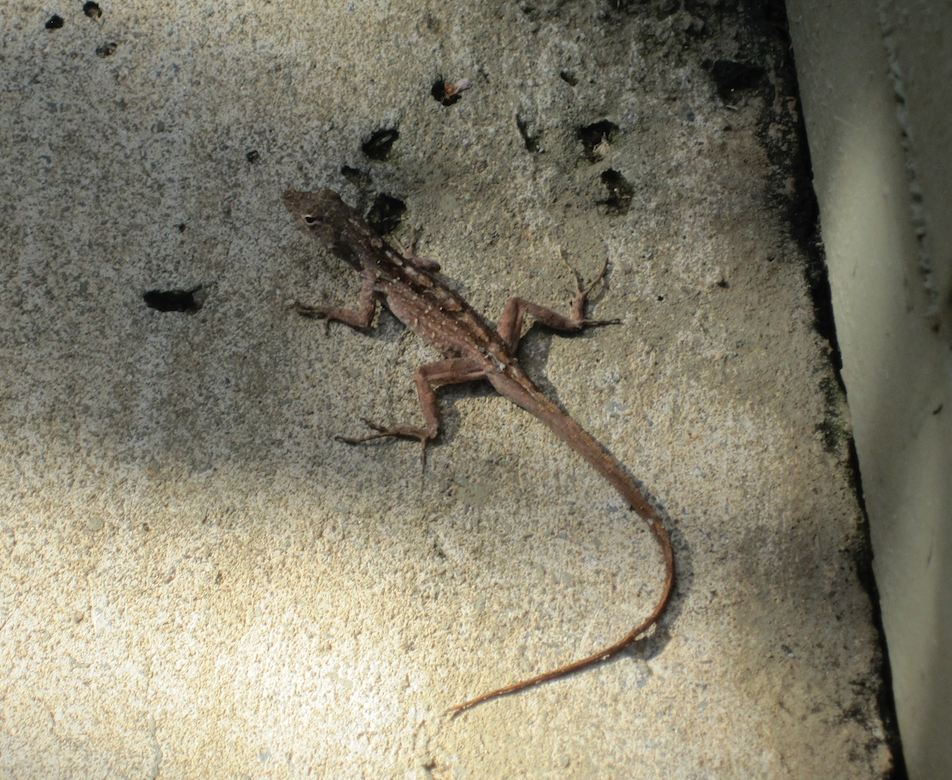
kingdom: Animalia
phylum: Chordata
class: Squamata
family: Dactyloidae
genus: Anolis
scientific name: Anolis sagrei
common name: Brown anole
